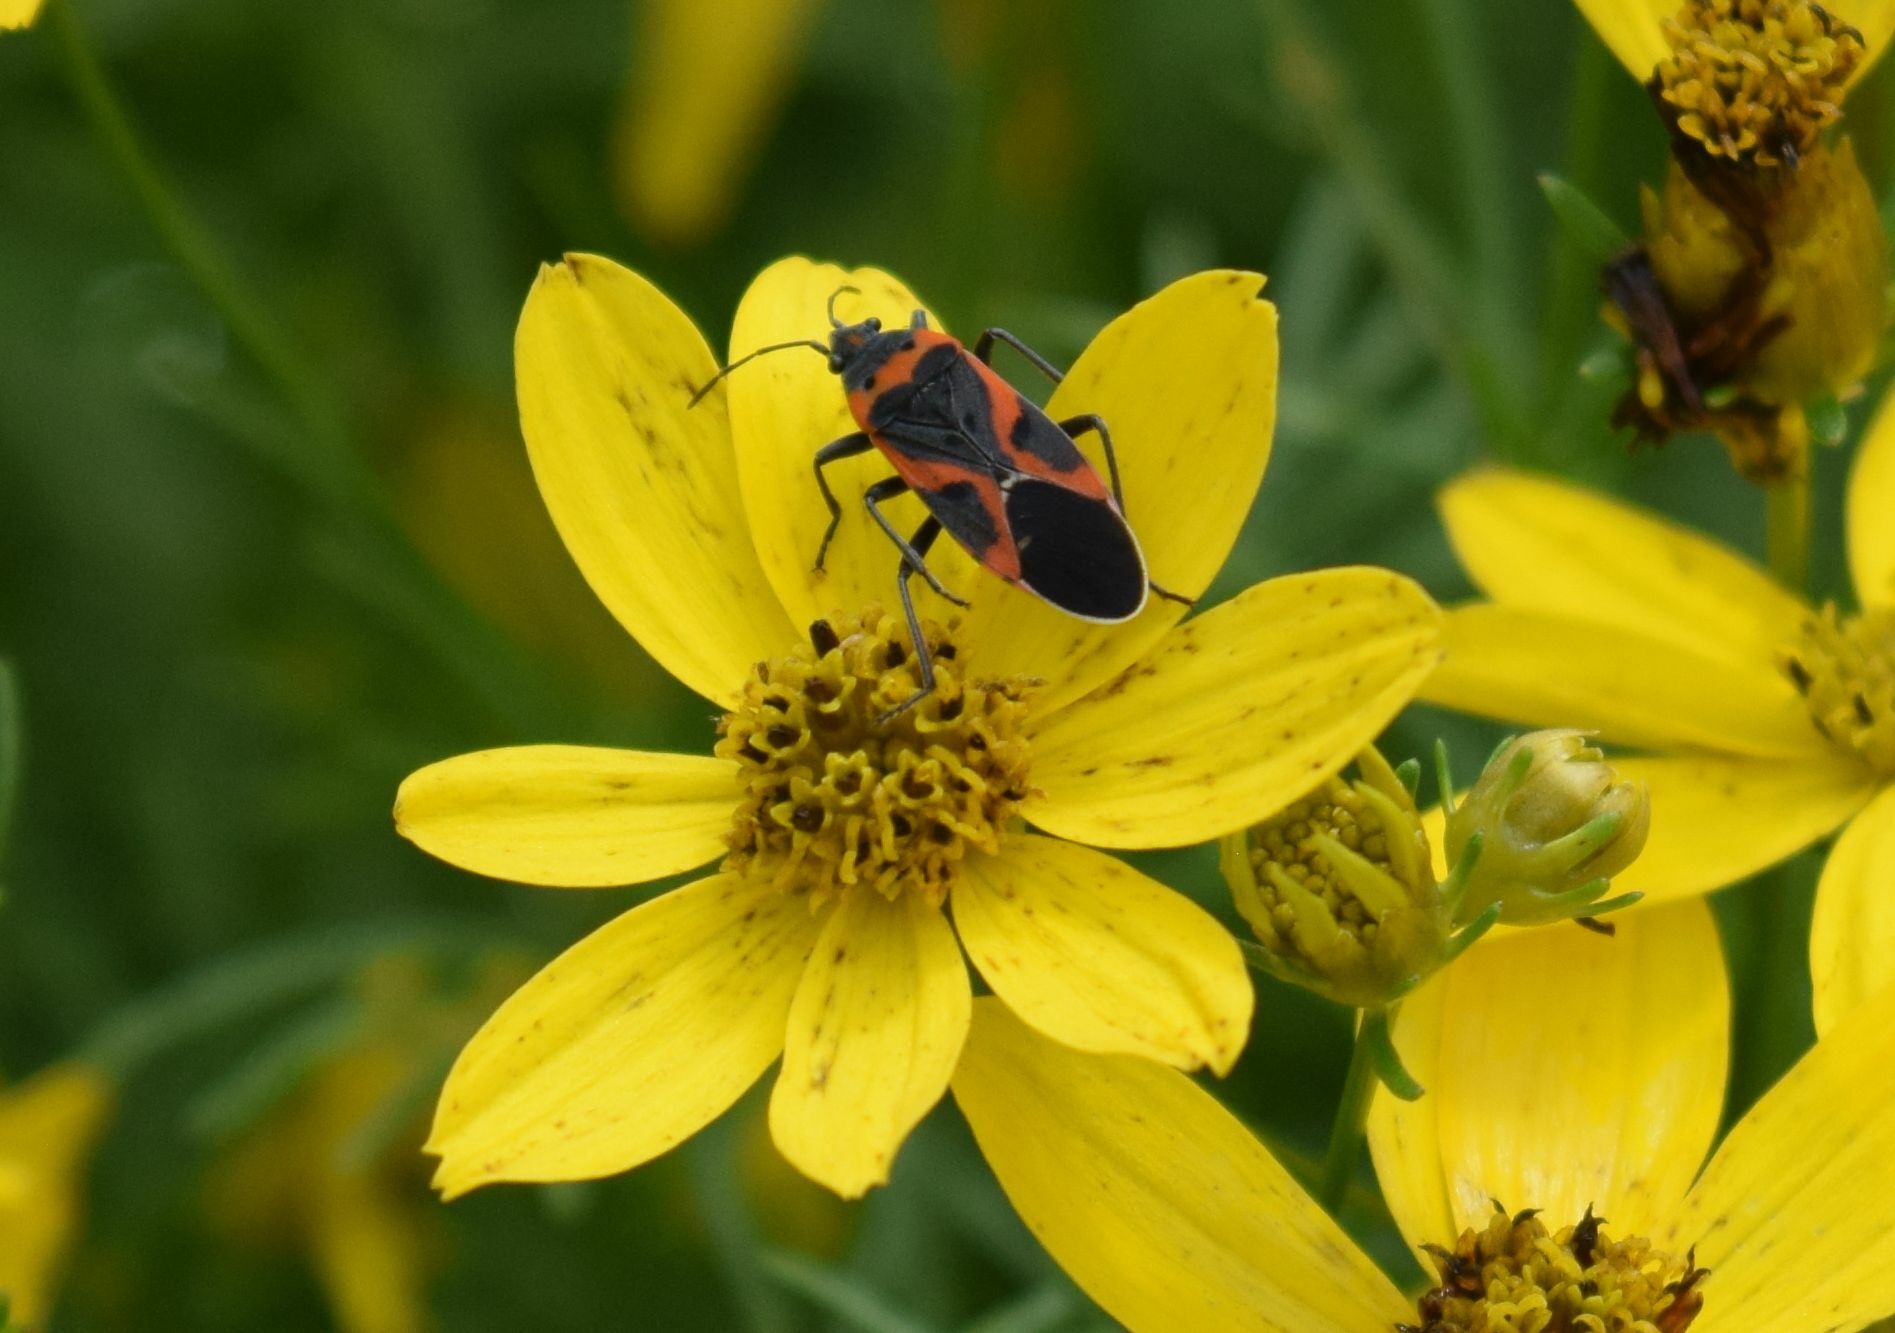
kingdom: Animalia
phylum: Arthropoda
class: Insecta
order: Hemiptera
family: Lygaeidae
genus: Lygaeus
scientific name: Lygaeus kalmii
